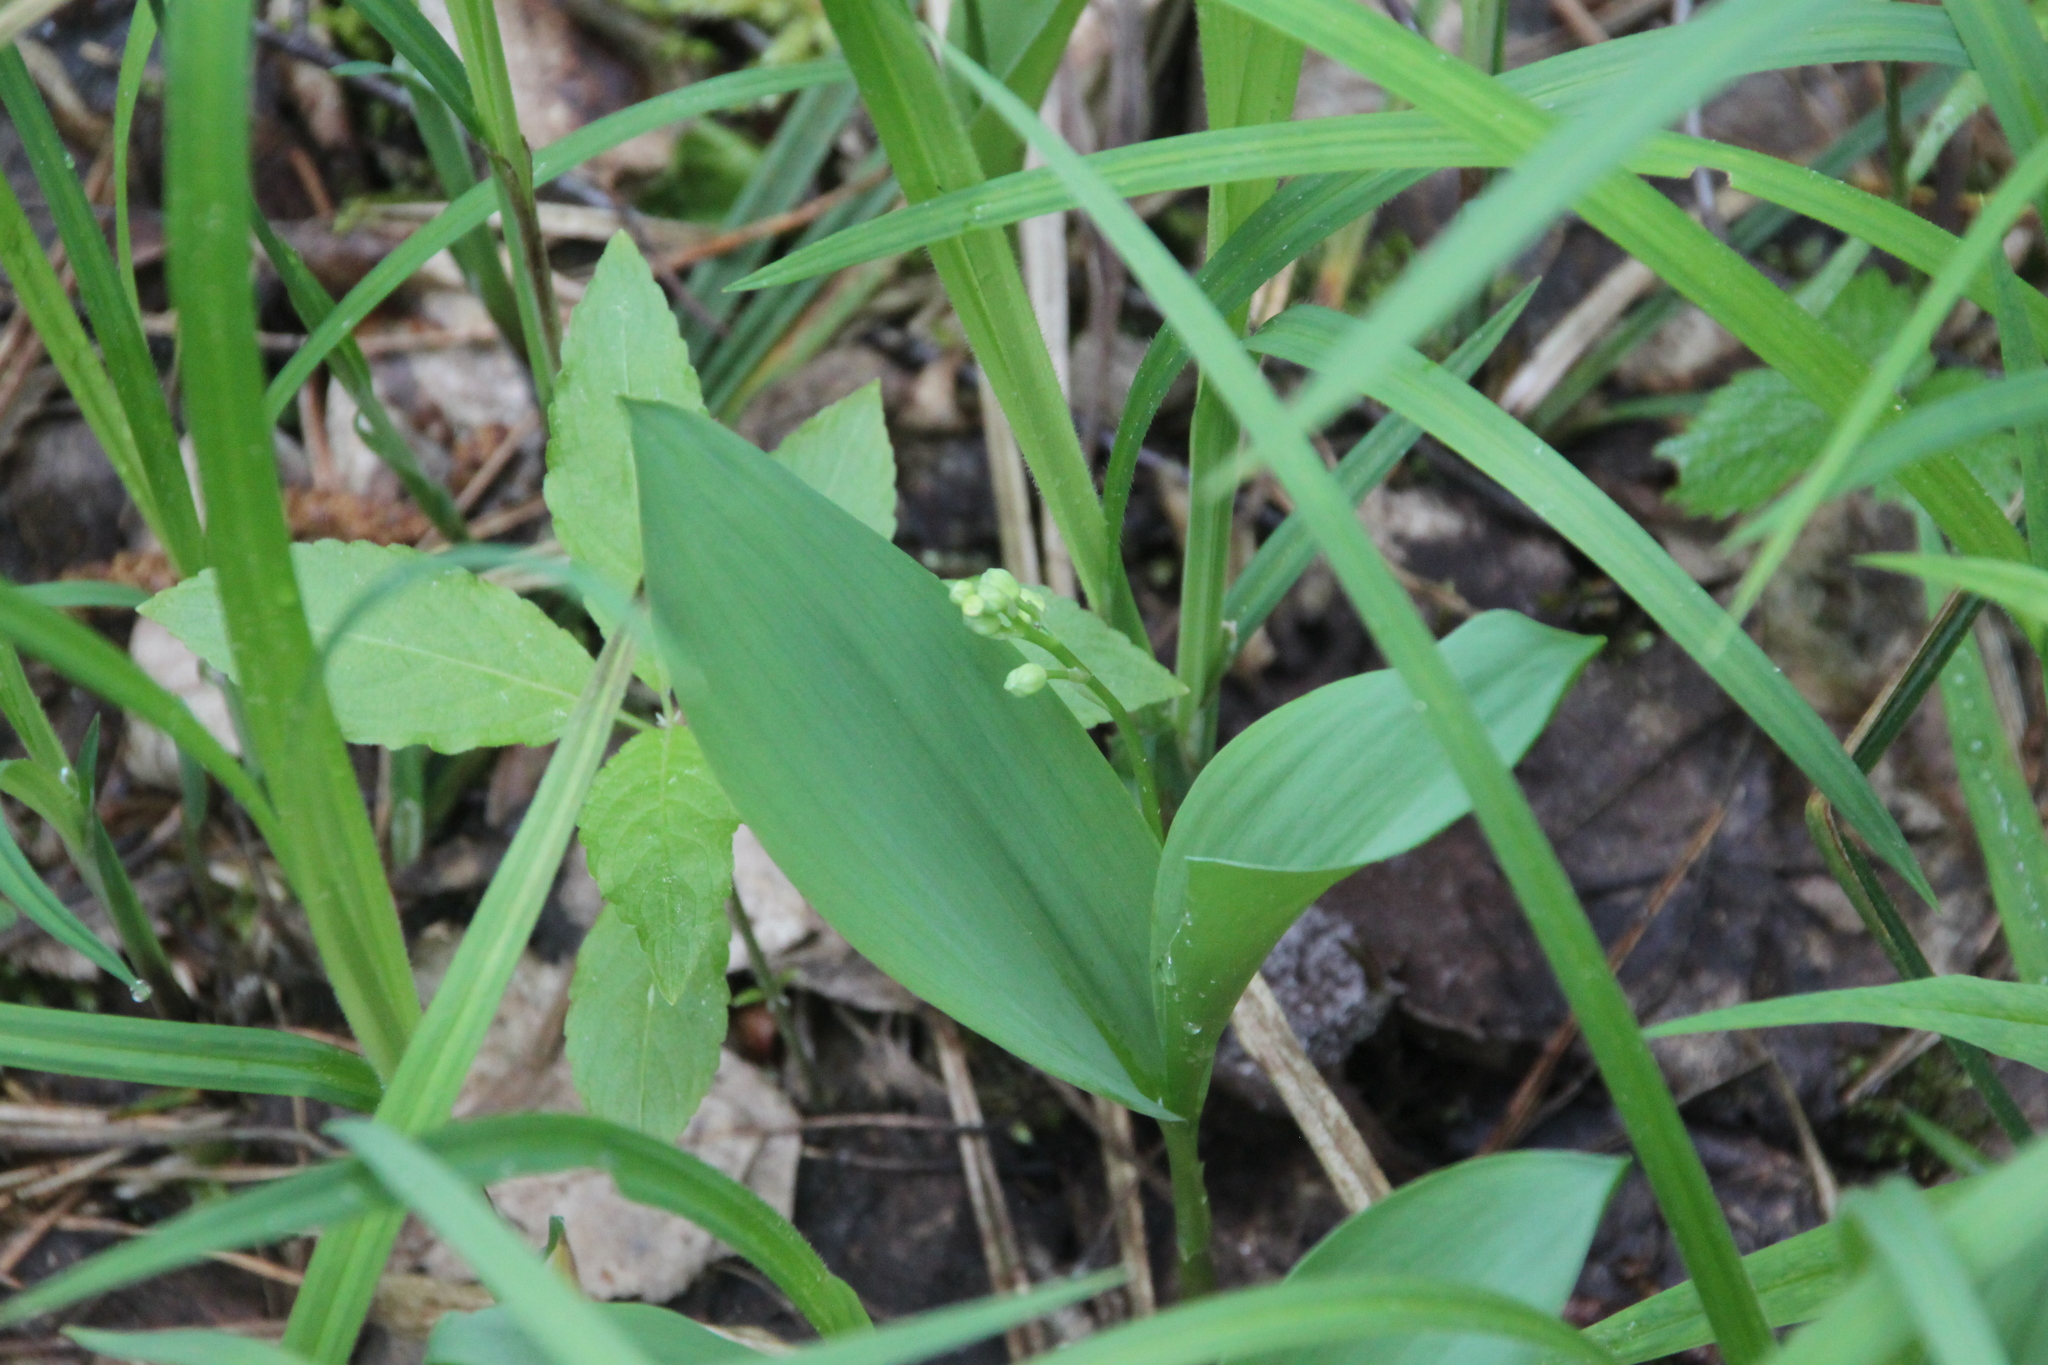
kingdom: Plantae
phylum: Tracheophyta
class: Liliopsida
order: Asparagales
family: Asparagaceae
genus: Convallaria
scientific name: Convallaria majalis
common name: Lily-of-the-valley
